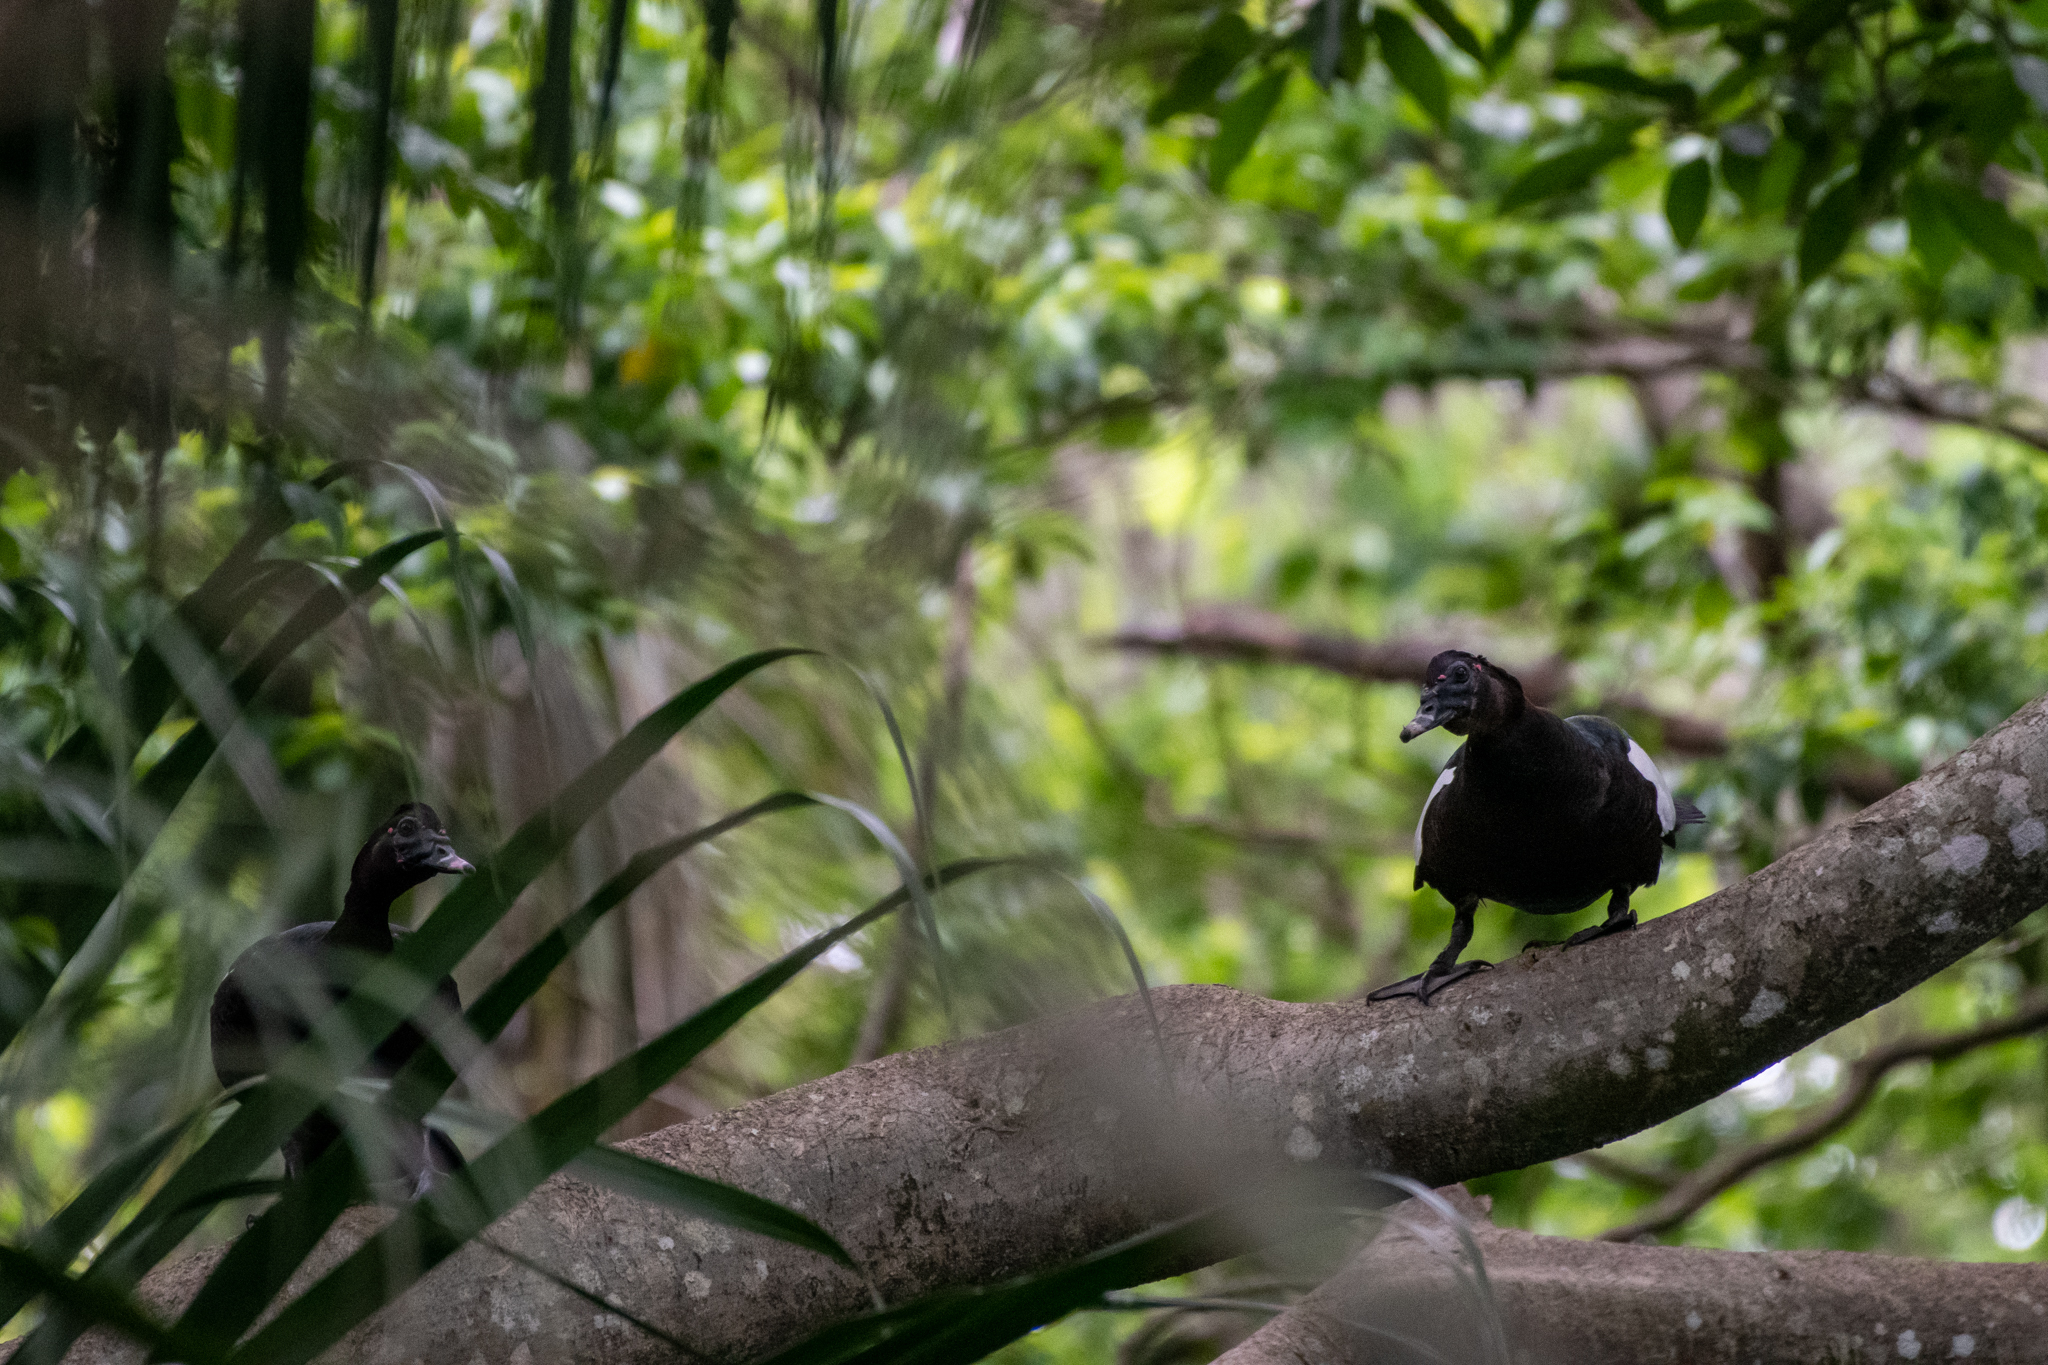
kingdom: Animalia
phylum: Chordata
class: Aves
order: Anseriformes
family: Anatidae
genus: Cairina
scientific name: Cairina moschata
